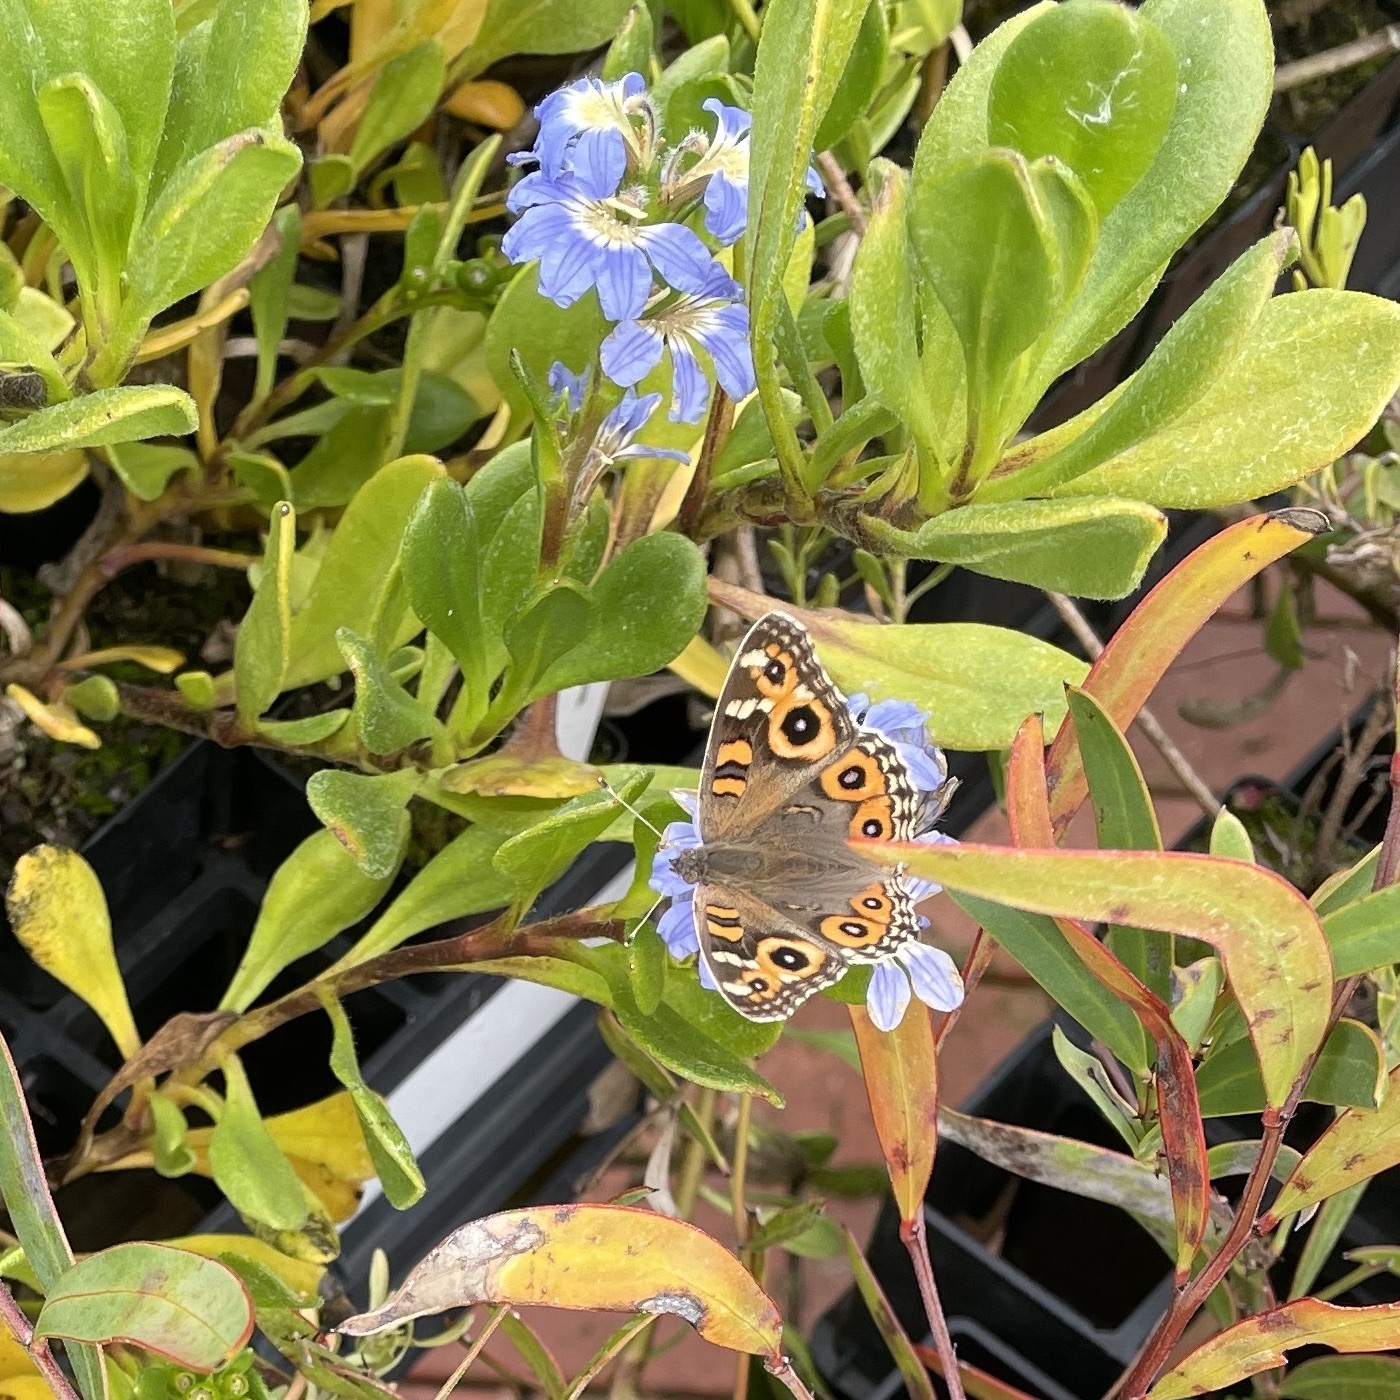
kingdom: Animalia
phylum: Arthropoda
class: Insecta
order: Lepidoptera
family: Nymphalidae
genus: Junonia
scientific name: Junonia villida
